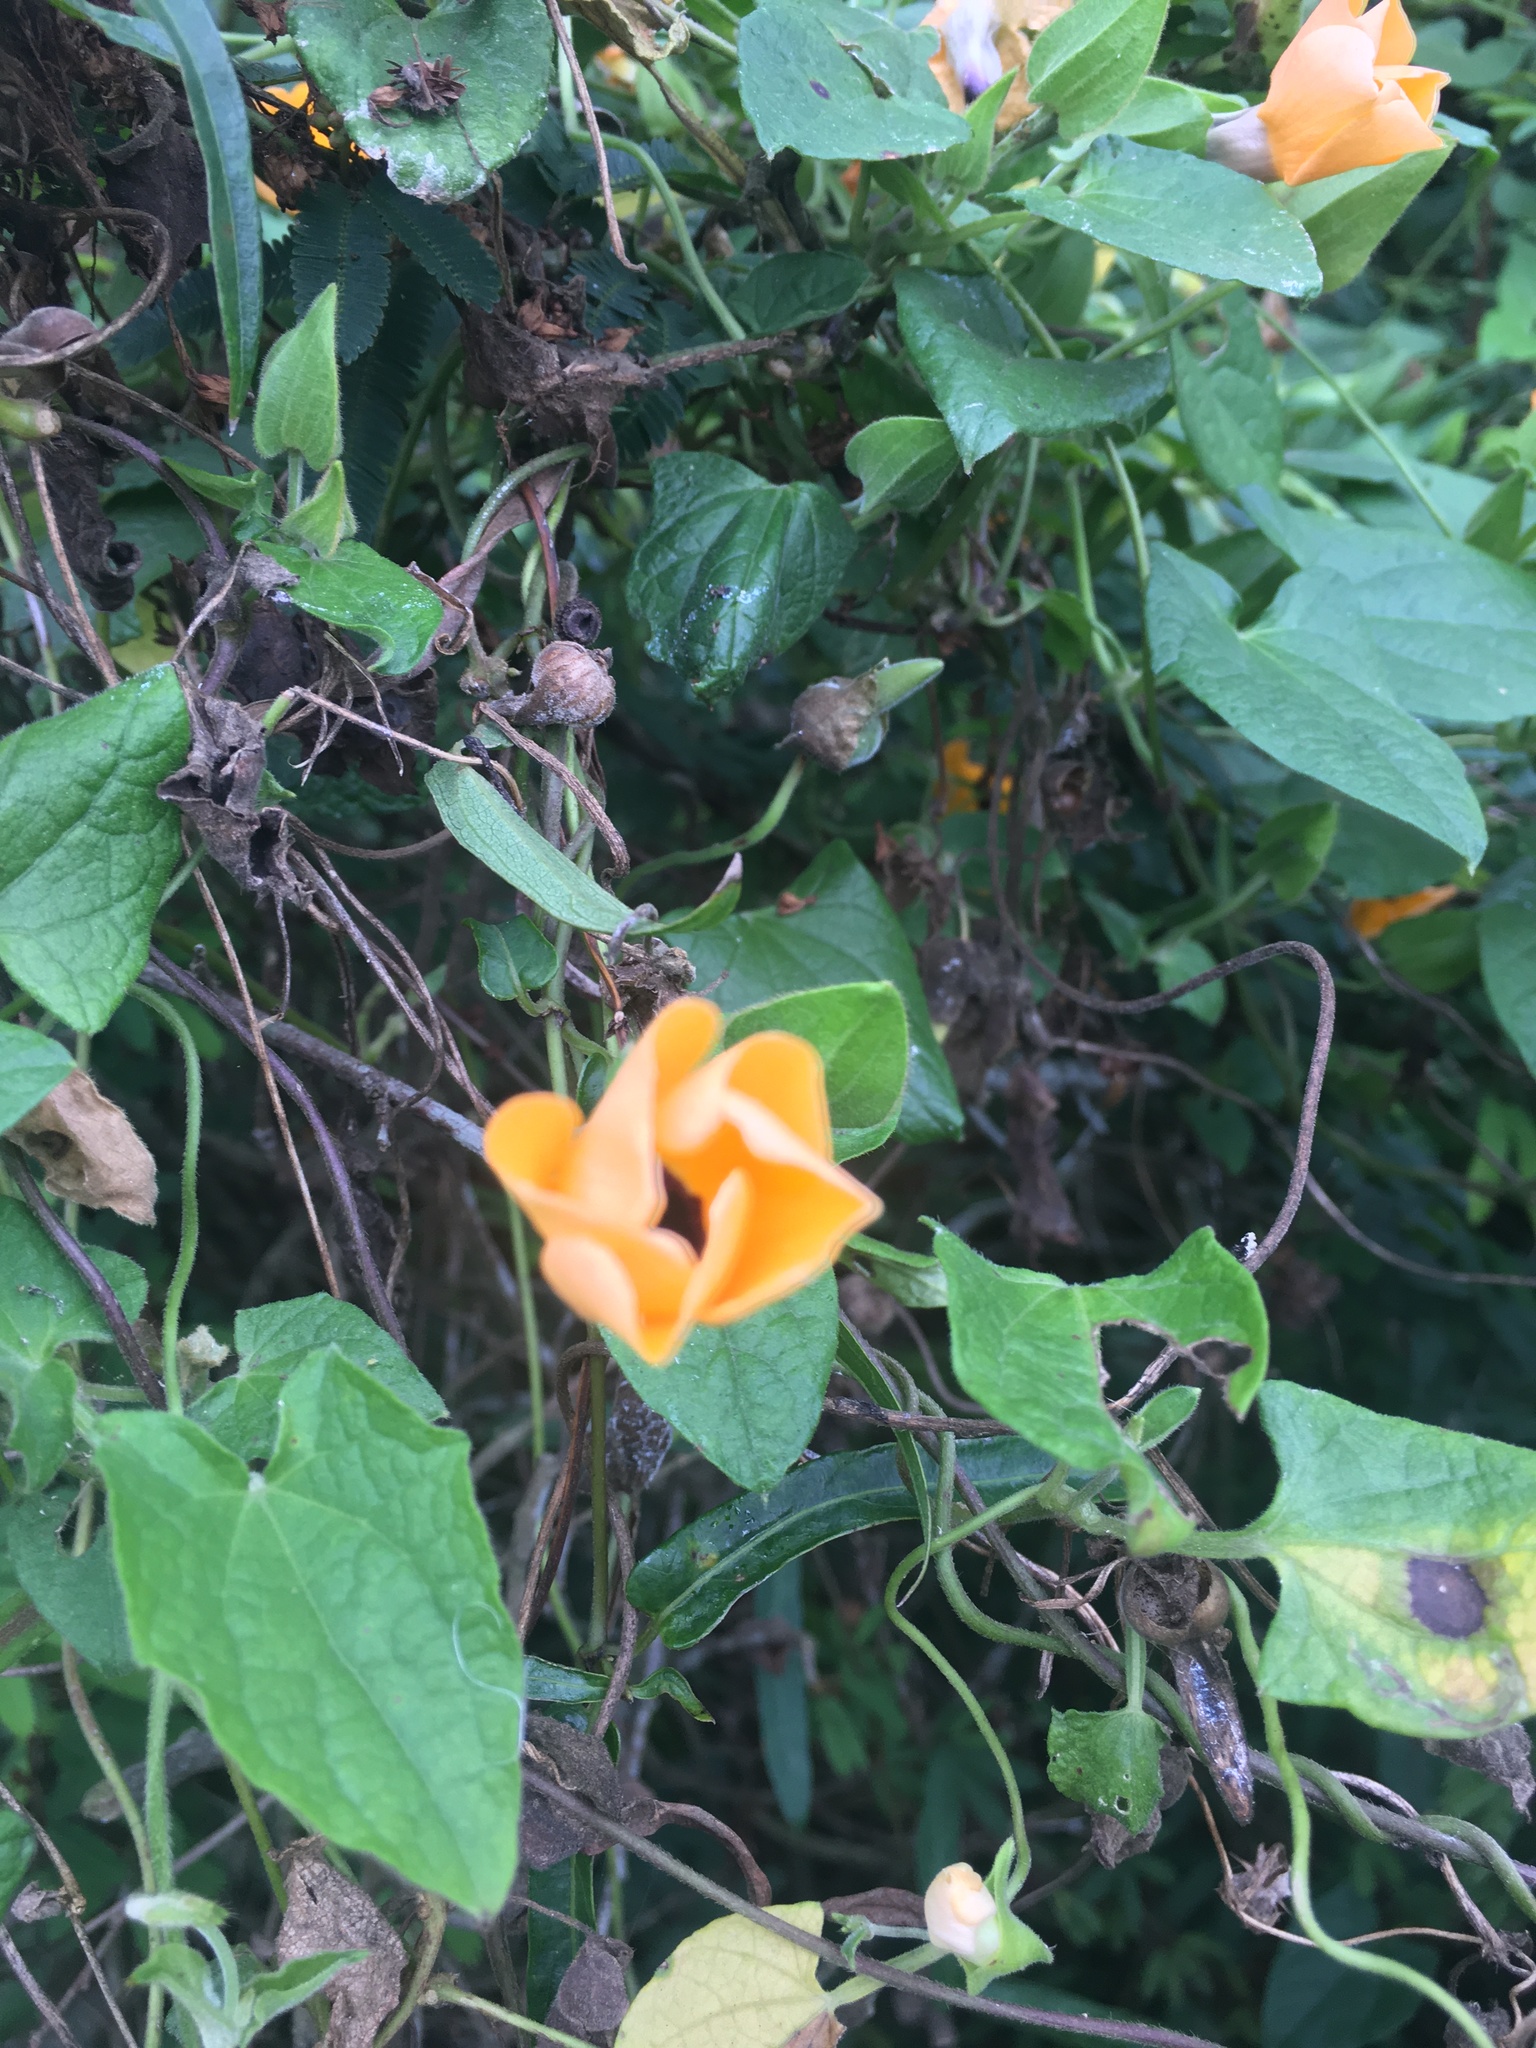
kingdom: Plantae
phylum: Tracheophyta
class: Magnoliopsida
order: Lamiales
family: Acanthaceae
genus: Thunbergia
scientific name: Thunbergia alata
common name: Blackeyed susan vine
